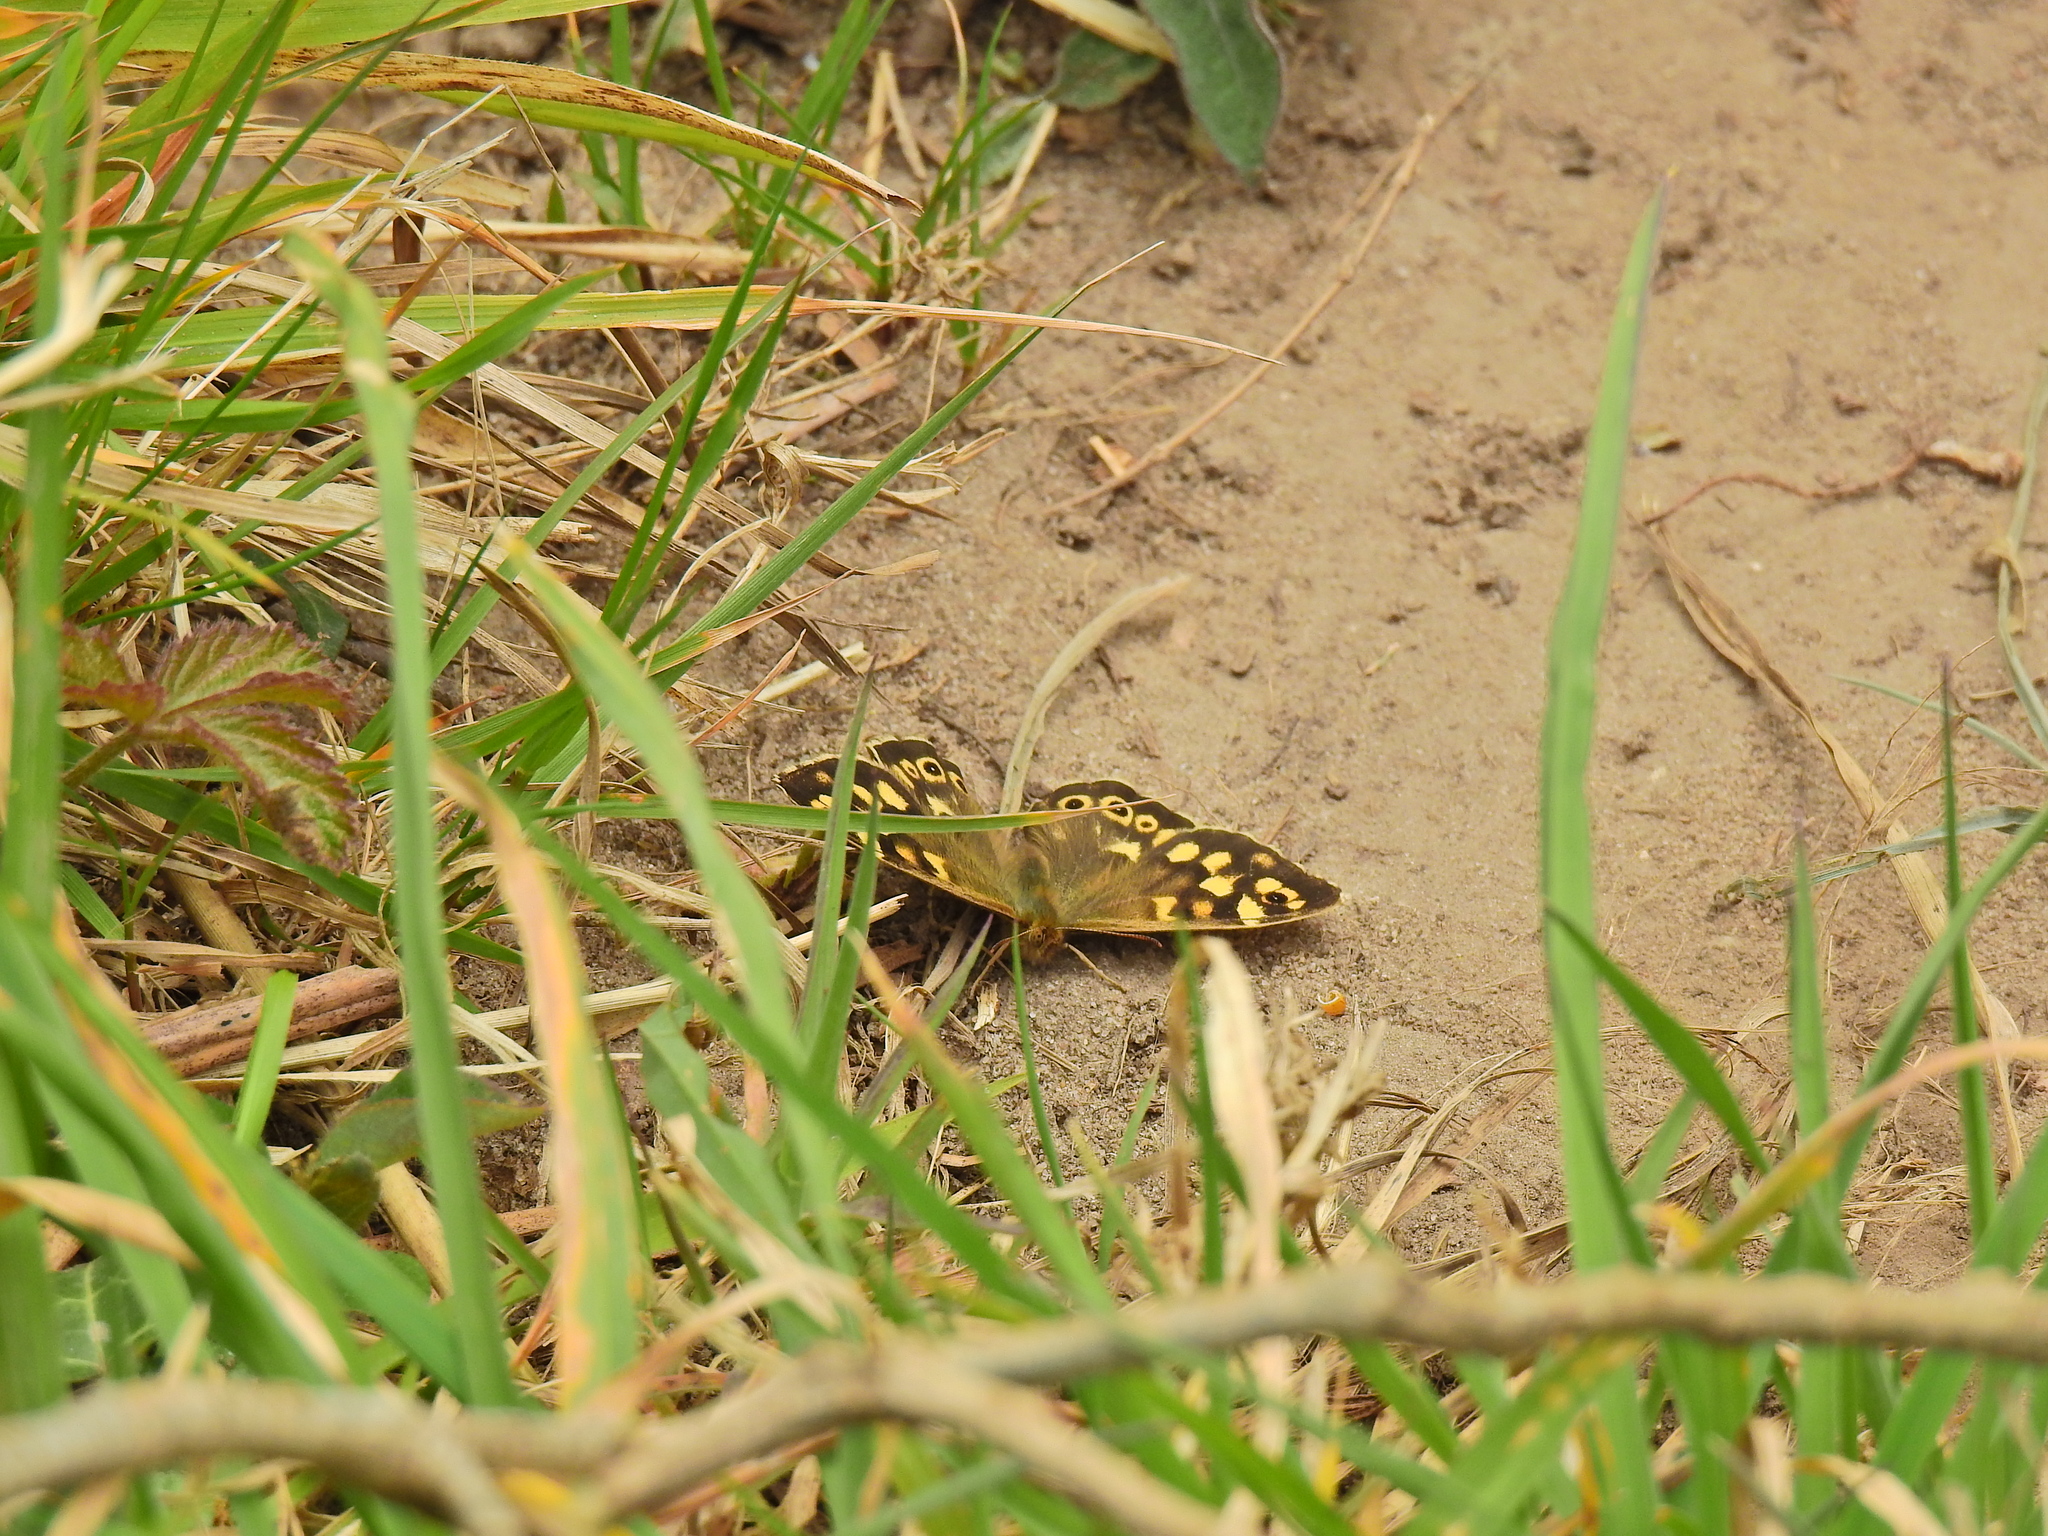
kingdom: Animalia
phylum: Arthropoda
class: Insecta
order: Lepidoptera
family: Nymphalidae
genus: Pararge
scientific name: Pararge aegeria
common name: Speckled wood
